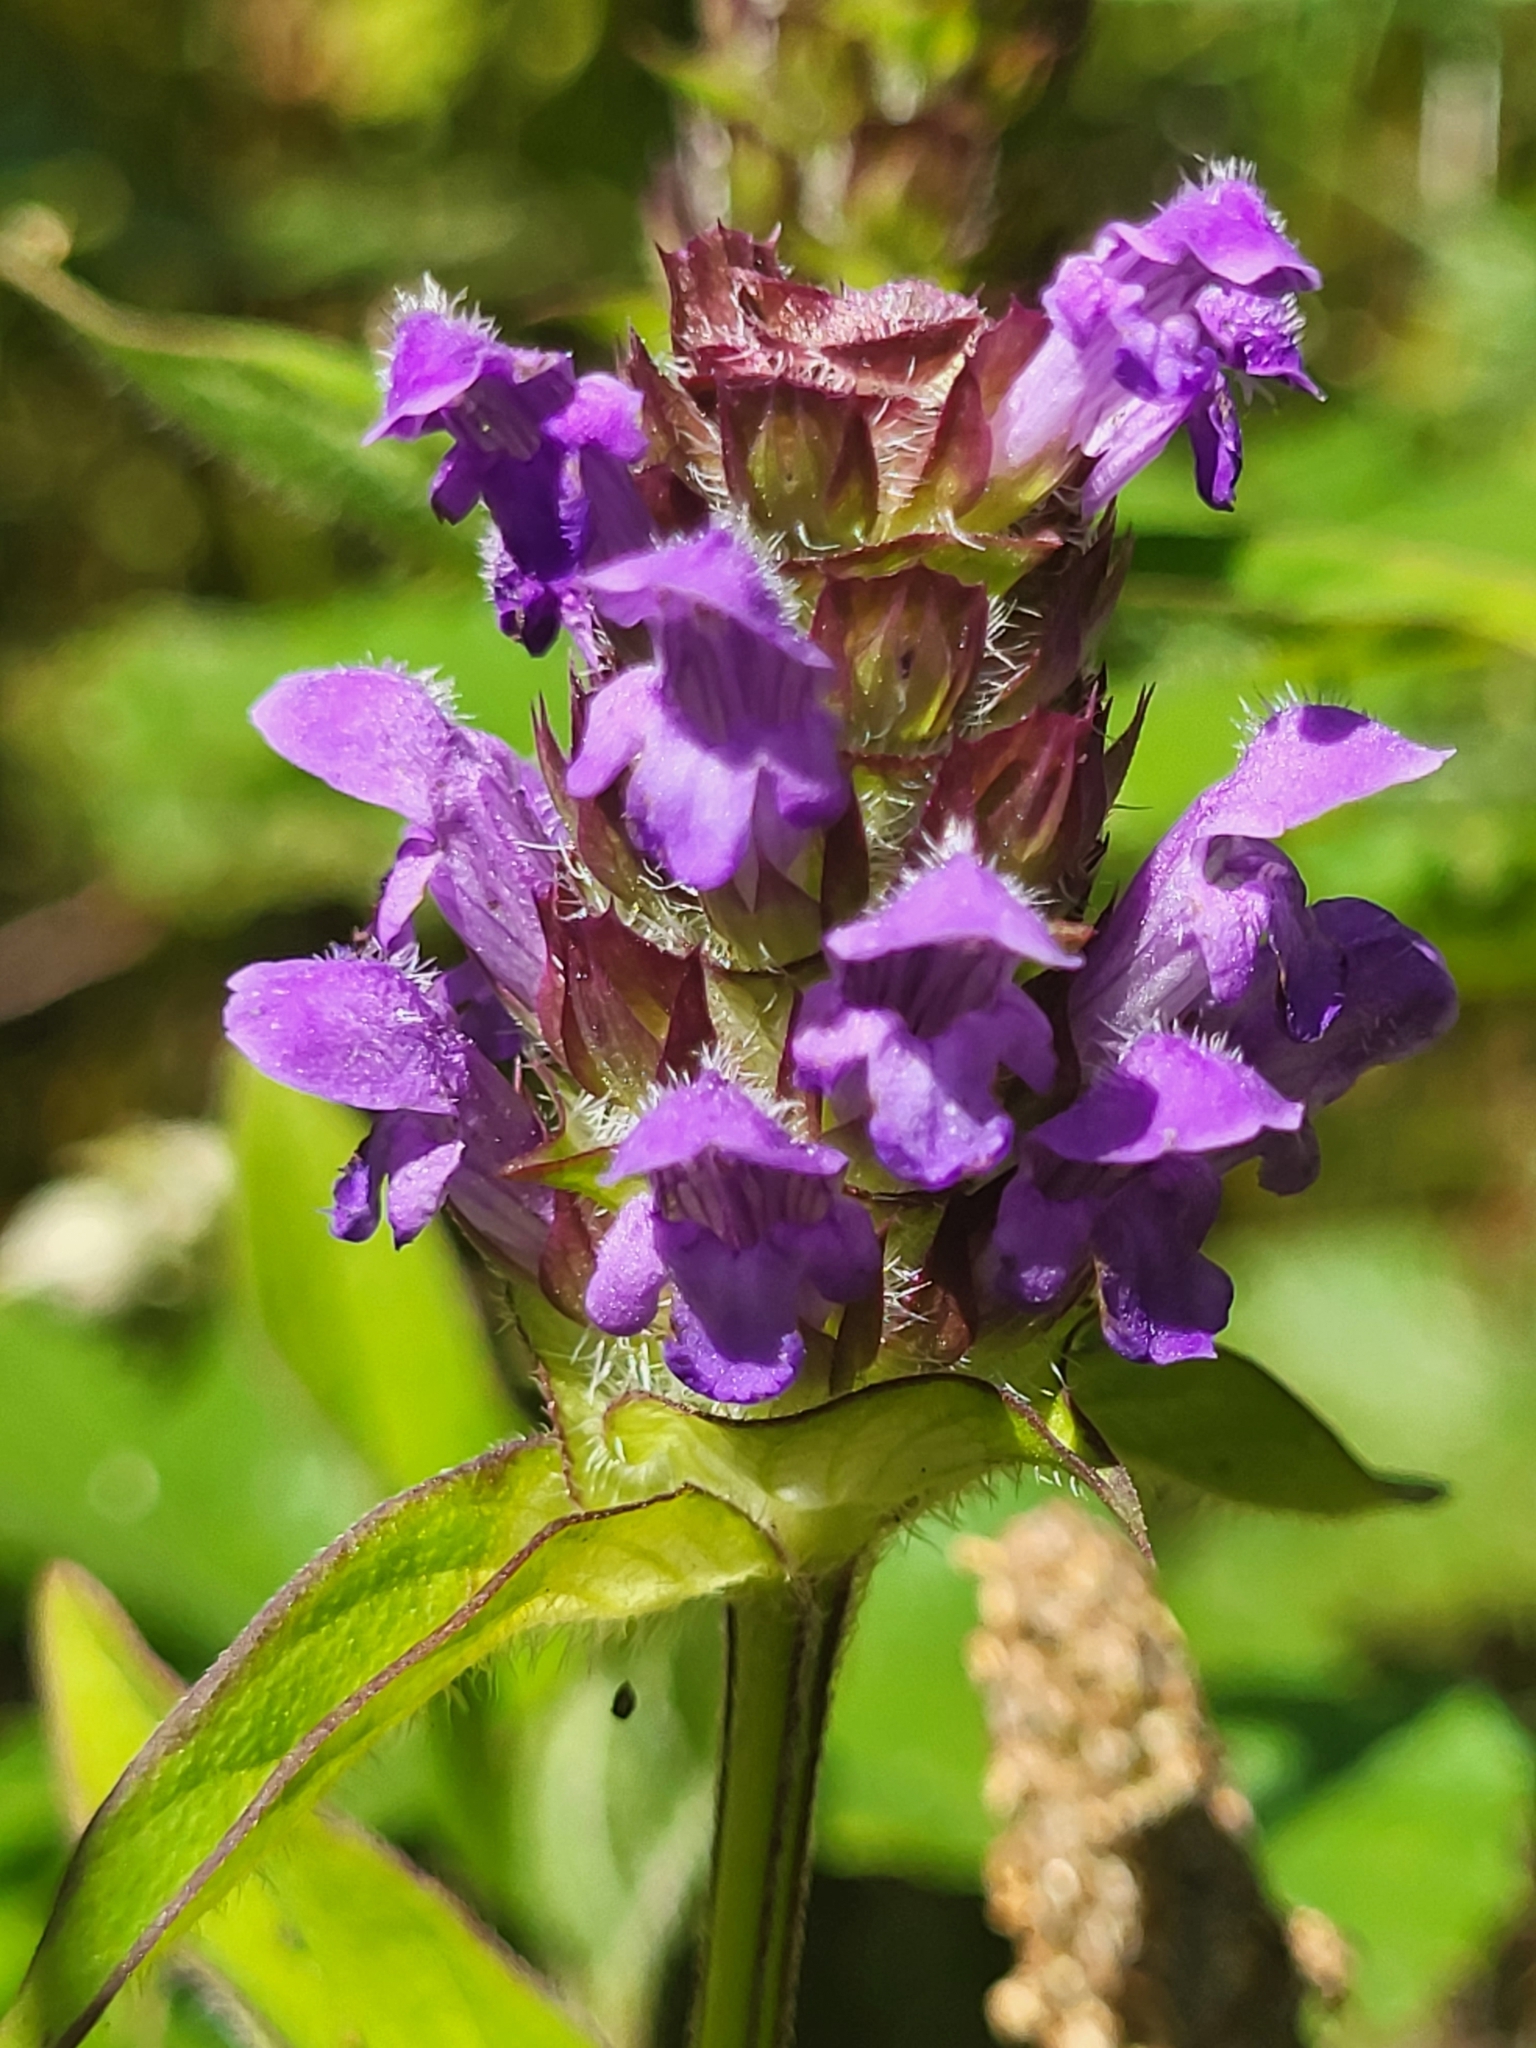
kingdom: Plantae
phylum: Tracheophyta
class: Magnoliopsida
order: Lamiales
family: Lamiaceae
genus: Prunella
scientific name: Prunella vulgaris
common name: Heal-all
